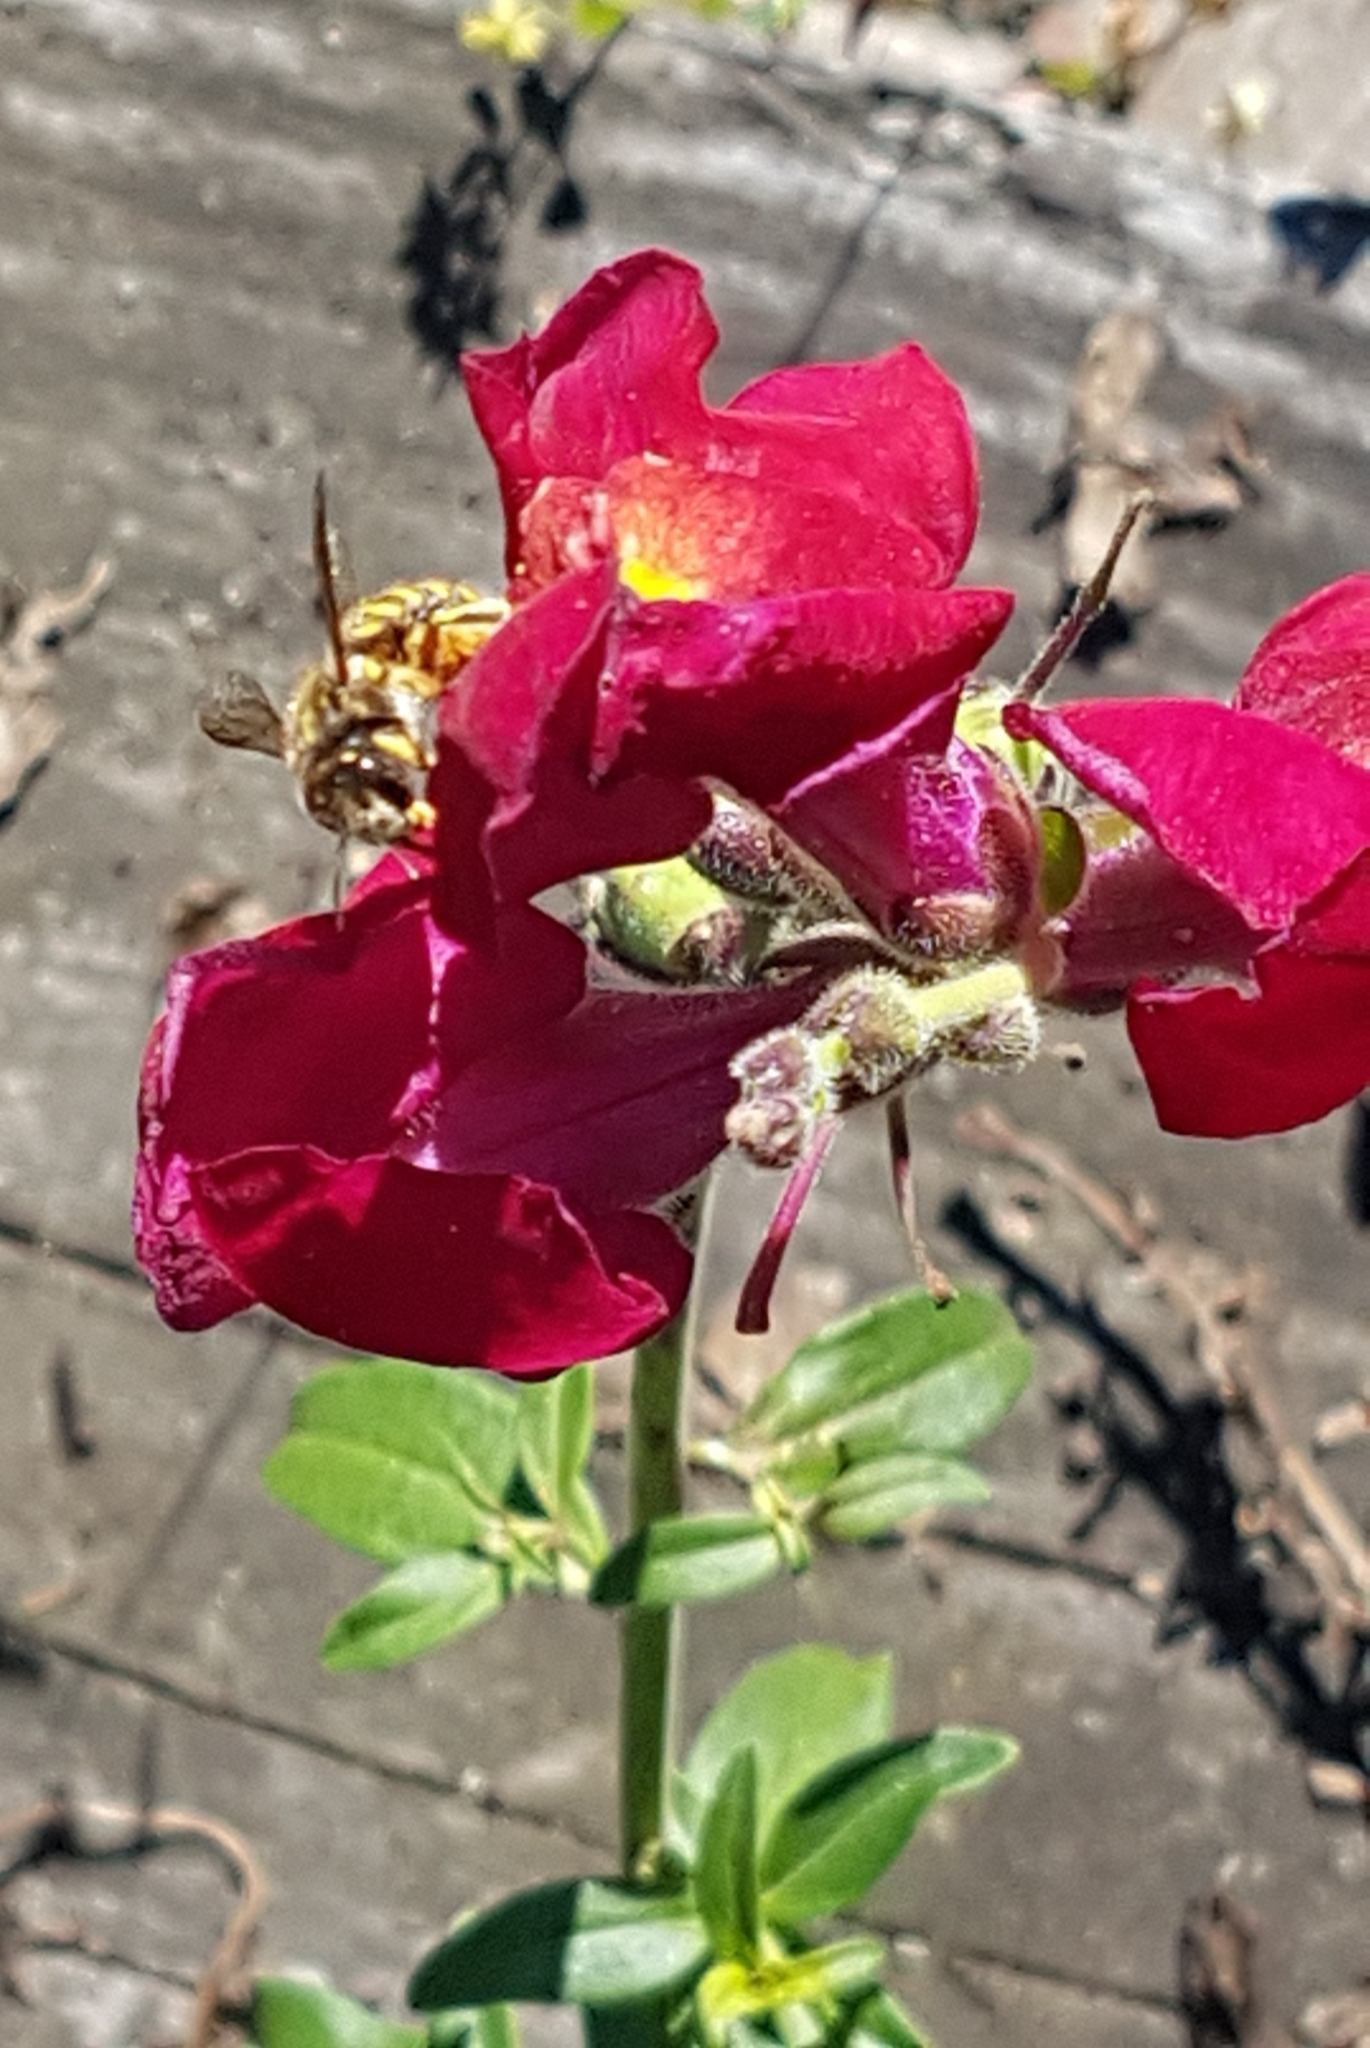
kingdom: Plantae
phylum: Tracheophyta
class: Magnoliopsida
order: Lamiales
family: Plantaginaceae
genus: Antirrhinum
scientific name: Antirrhinum majus
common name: Snapdragon
